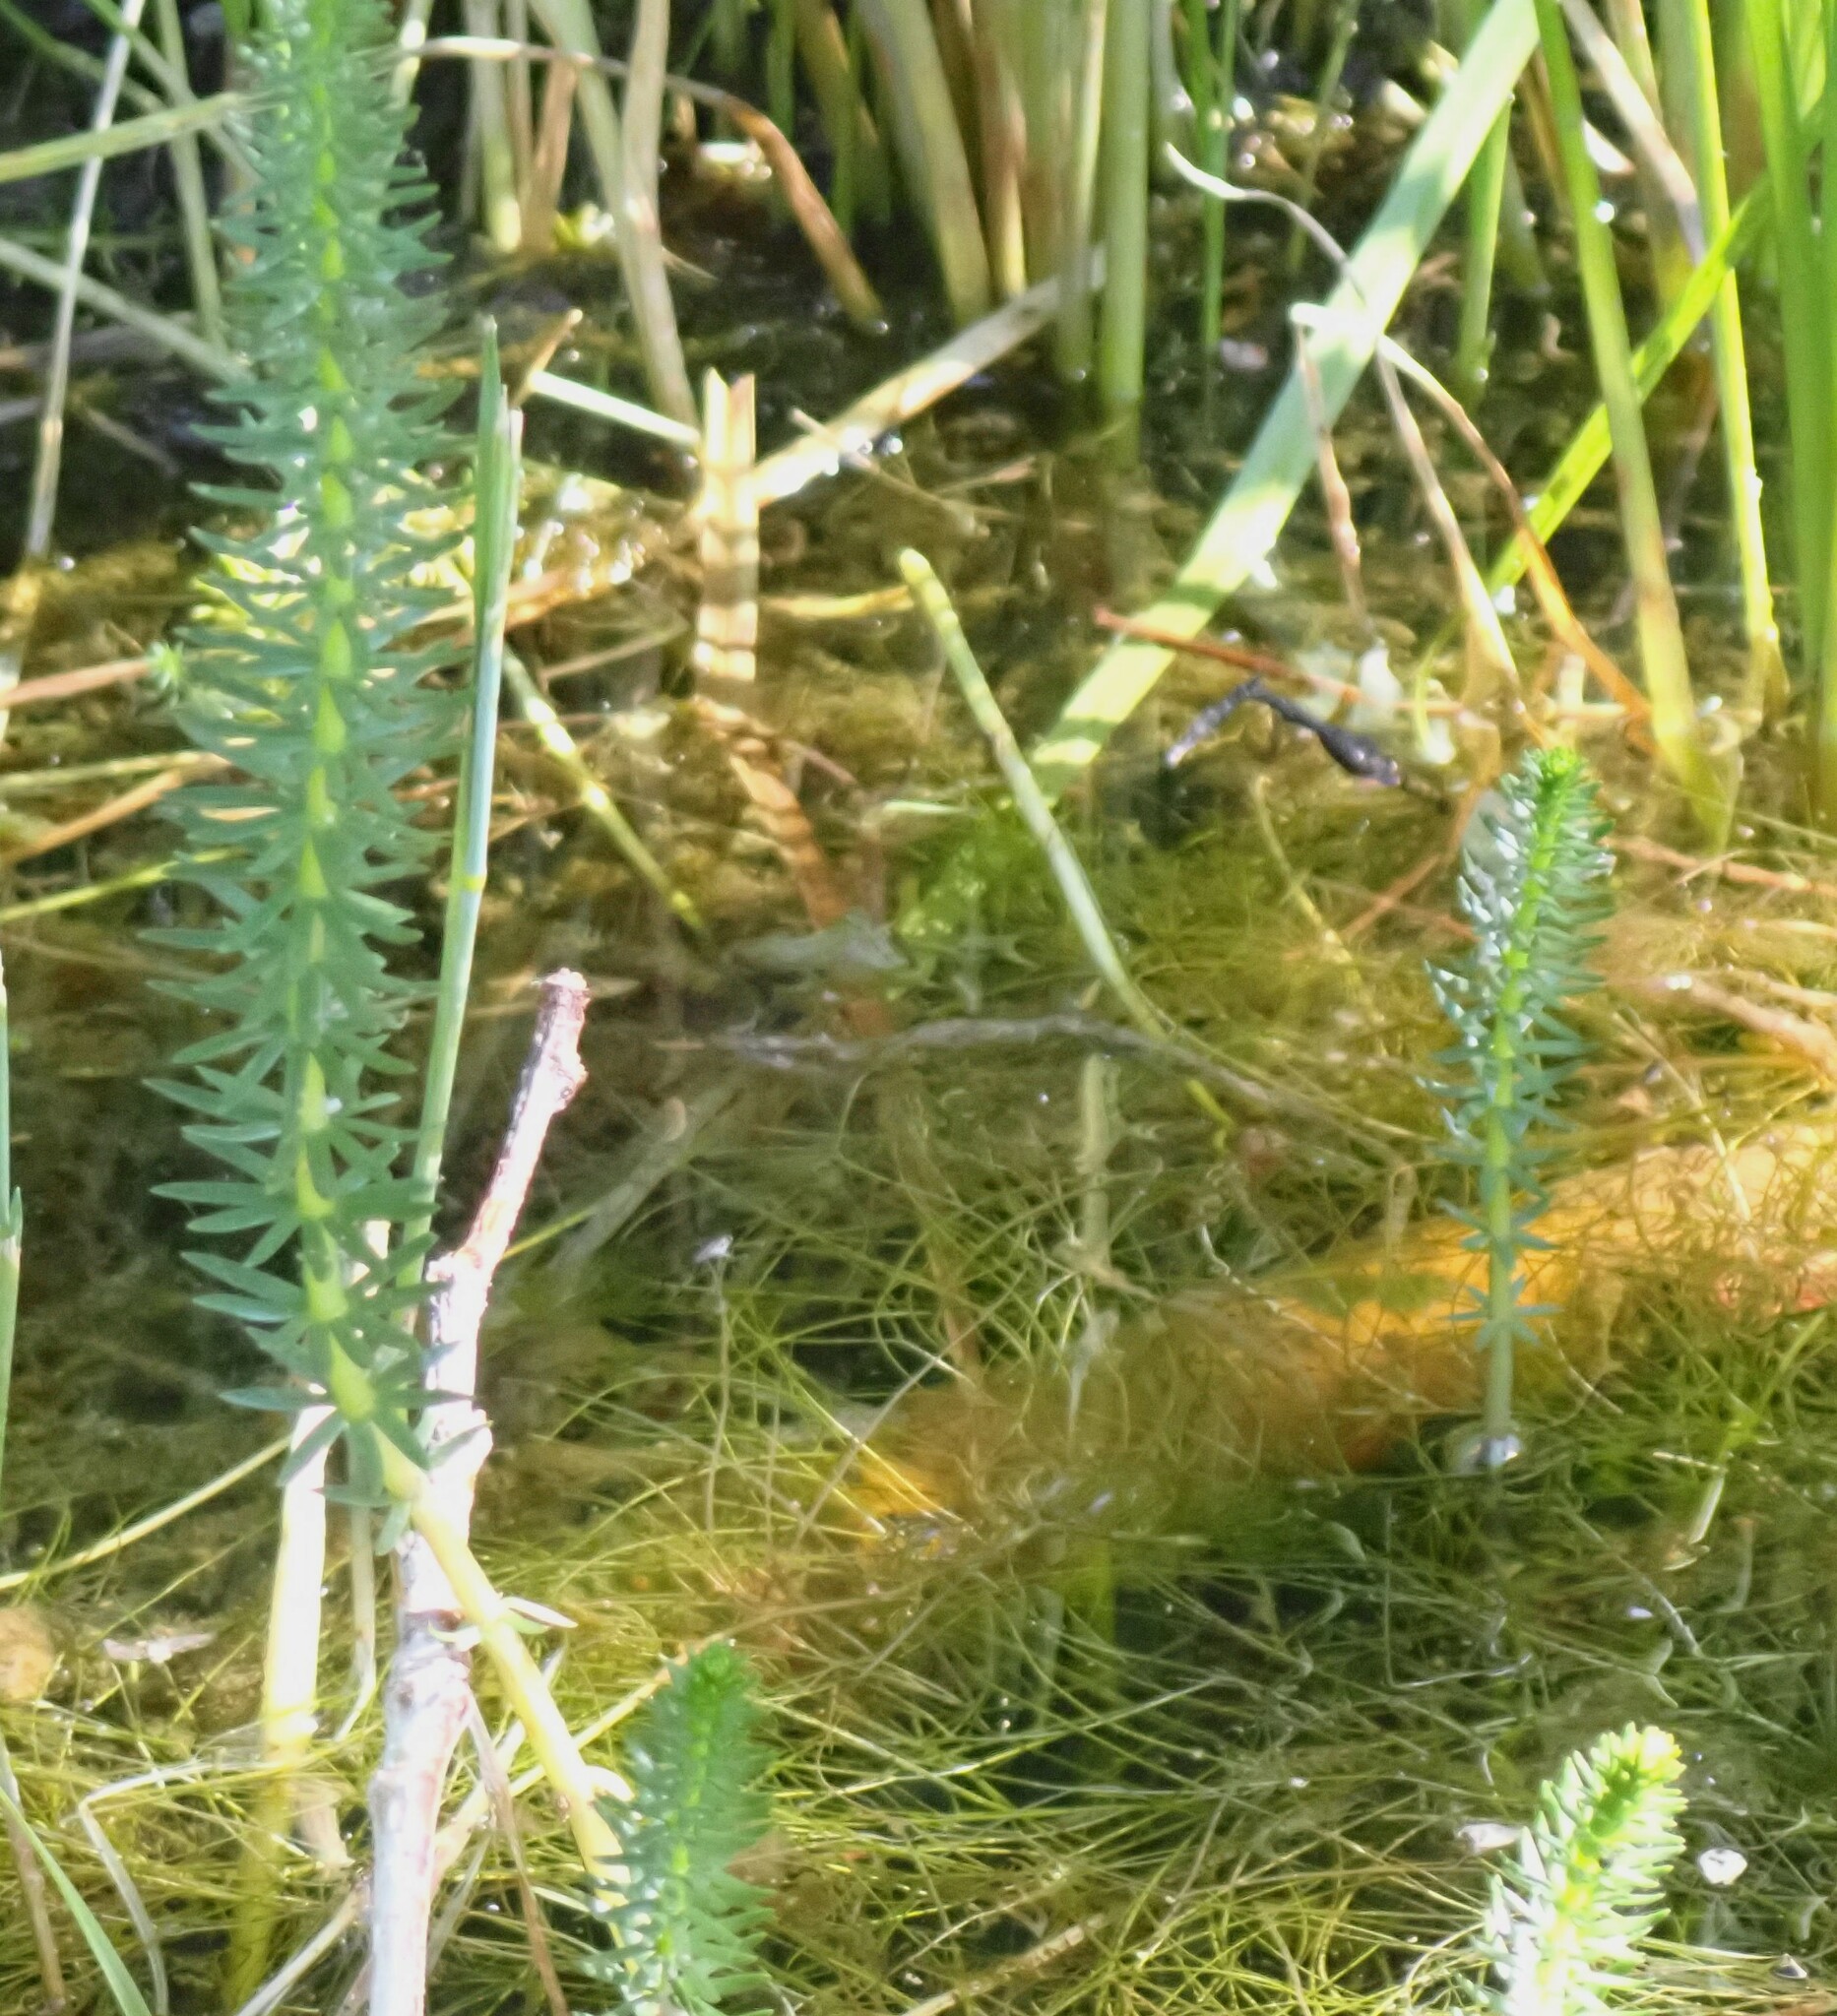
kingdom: Plantae
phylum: Tracheophyta
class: Magnoliopsida
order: Lamiales
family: Plantaginaceae
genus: Hippuris
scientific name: Hippuris vulgaris
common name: Mare's-tail
